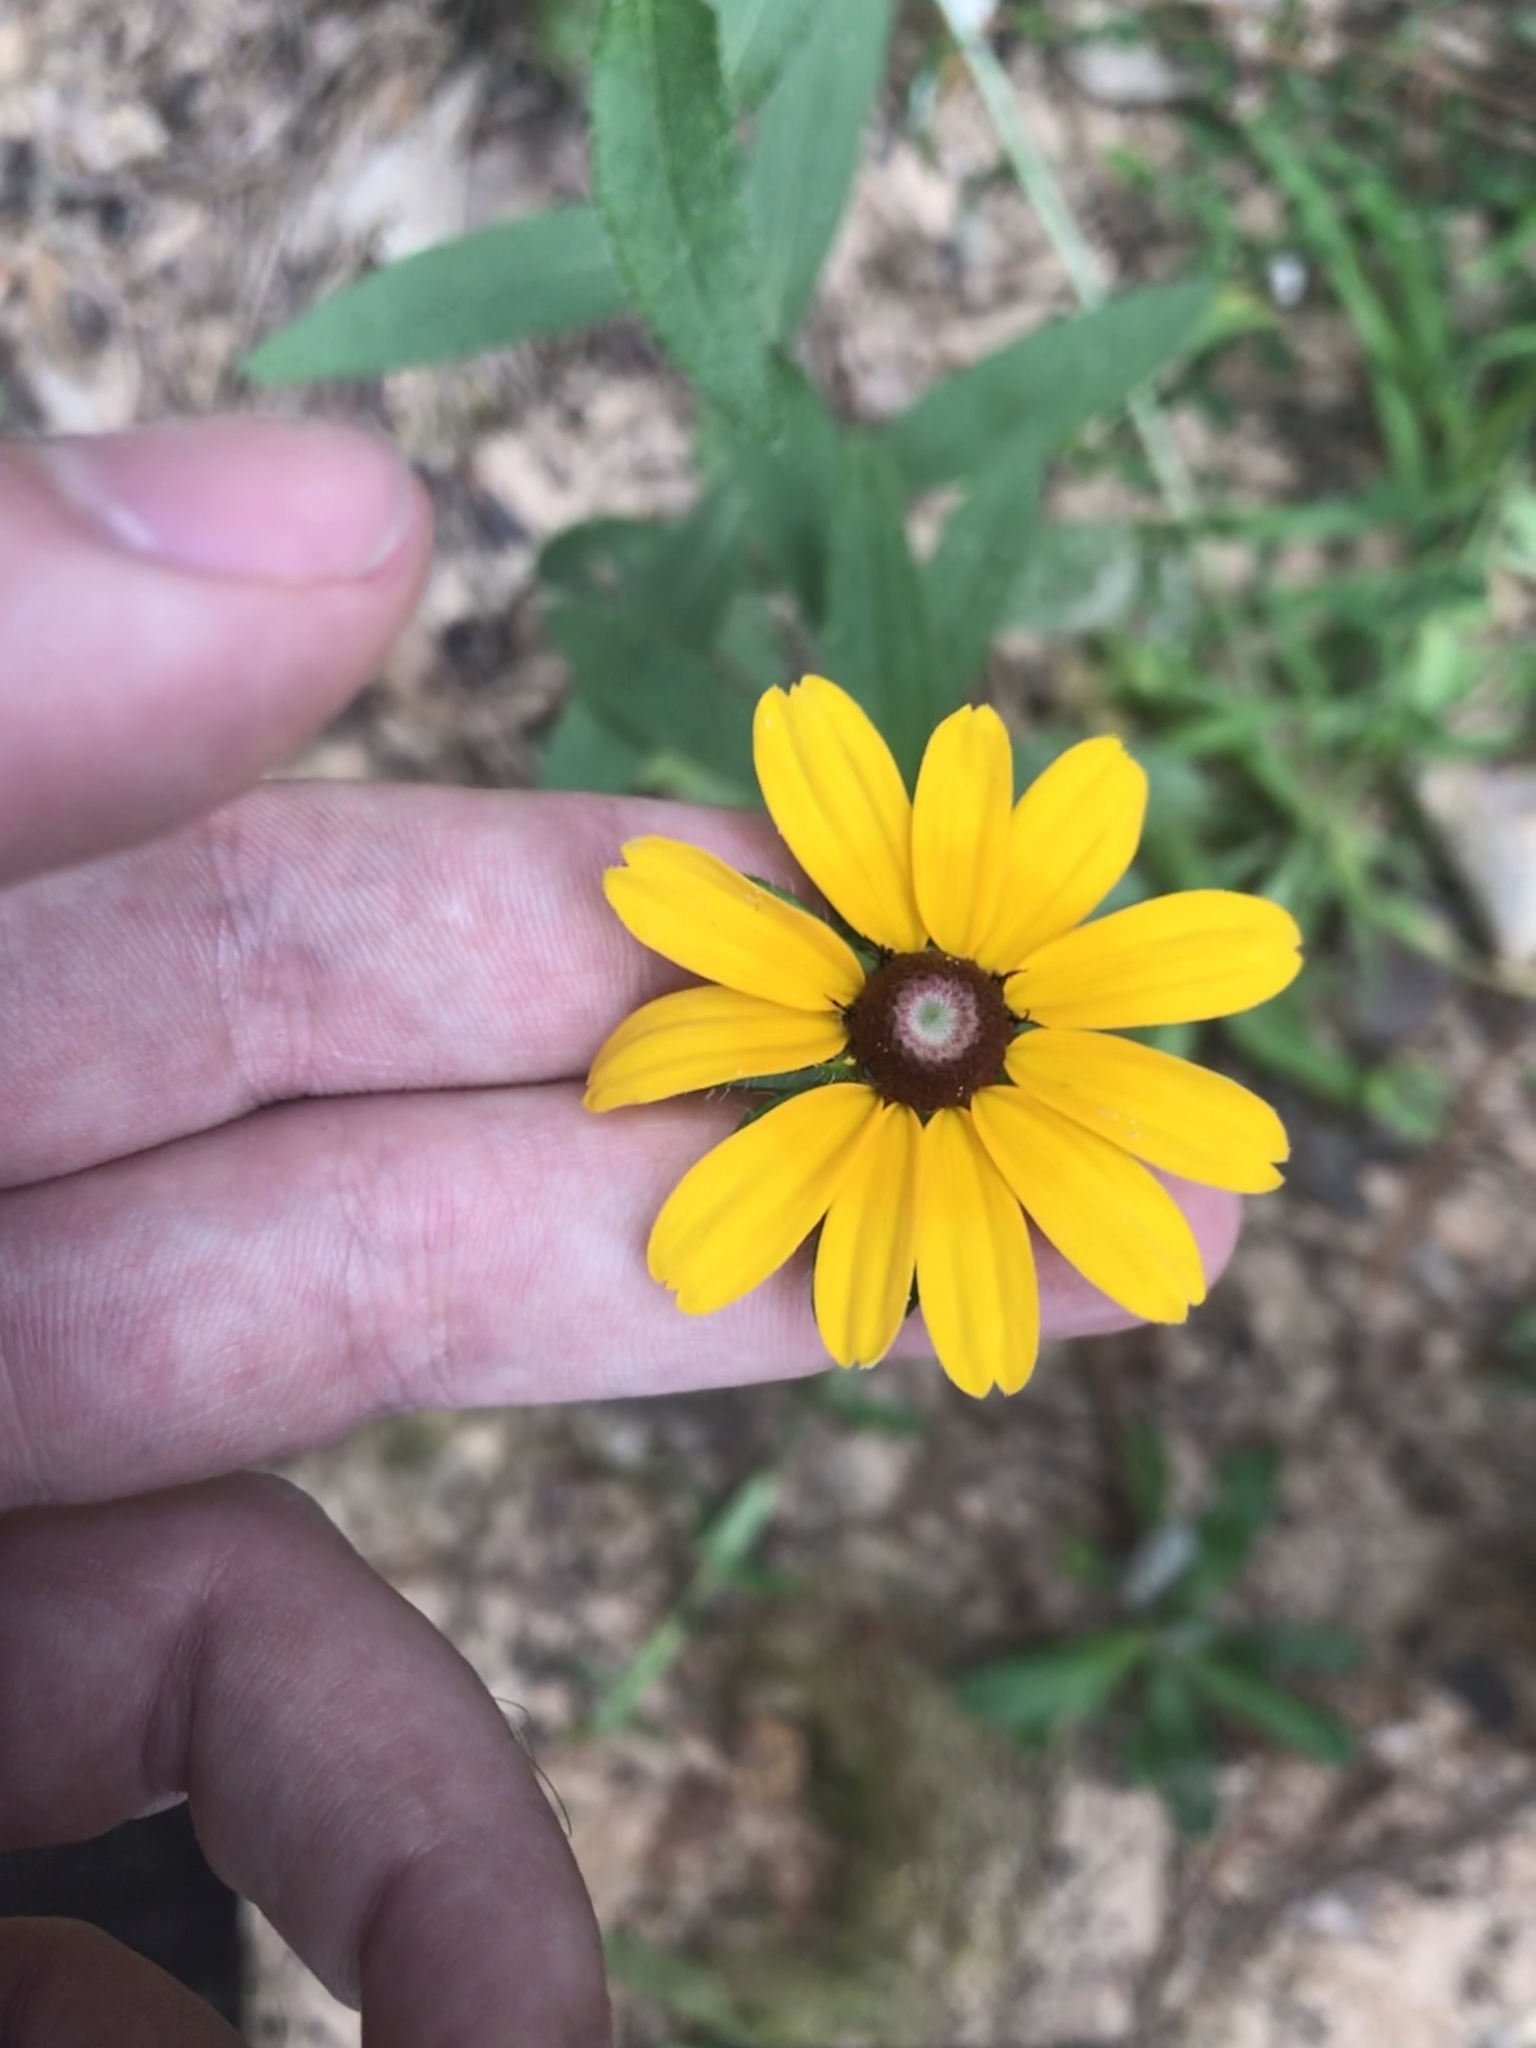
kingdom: Plantae
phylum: Tracheophyta
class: Magnoliopsida
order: Asterales
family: Asteraceae
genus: Rudbeckia
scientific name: Rudbeckia hirta
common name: Black-eyed-susan
